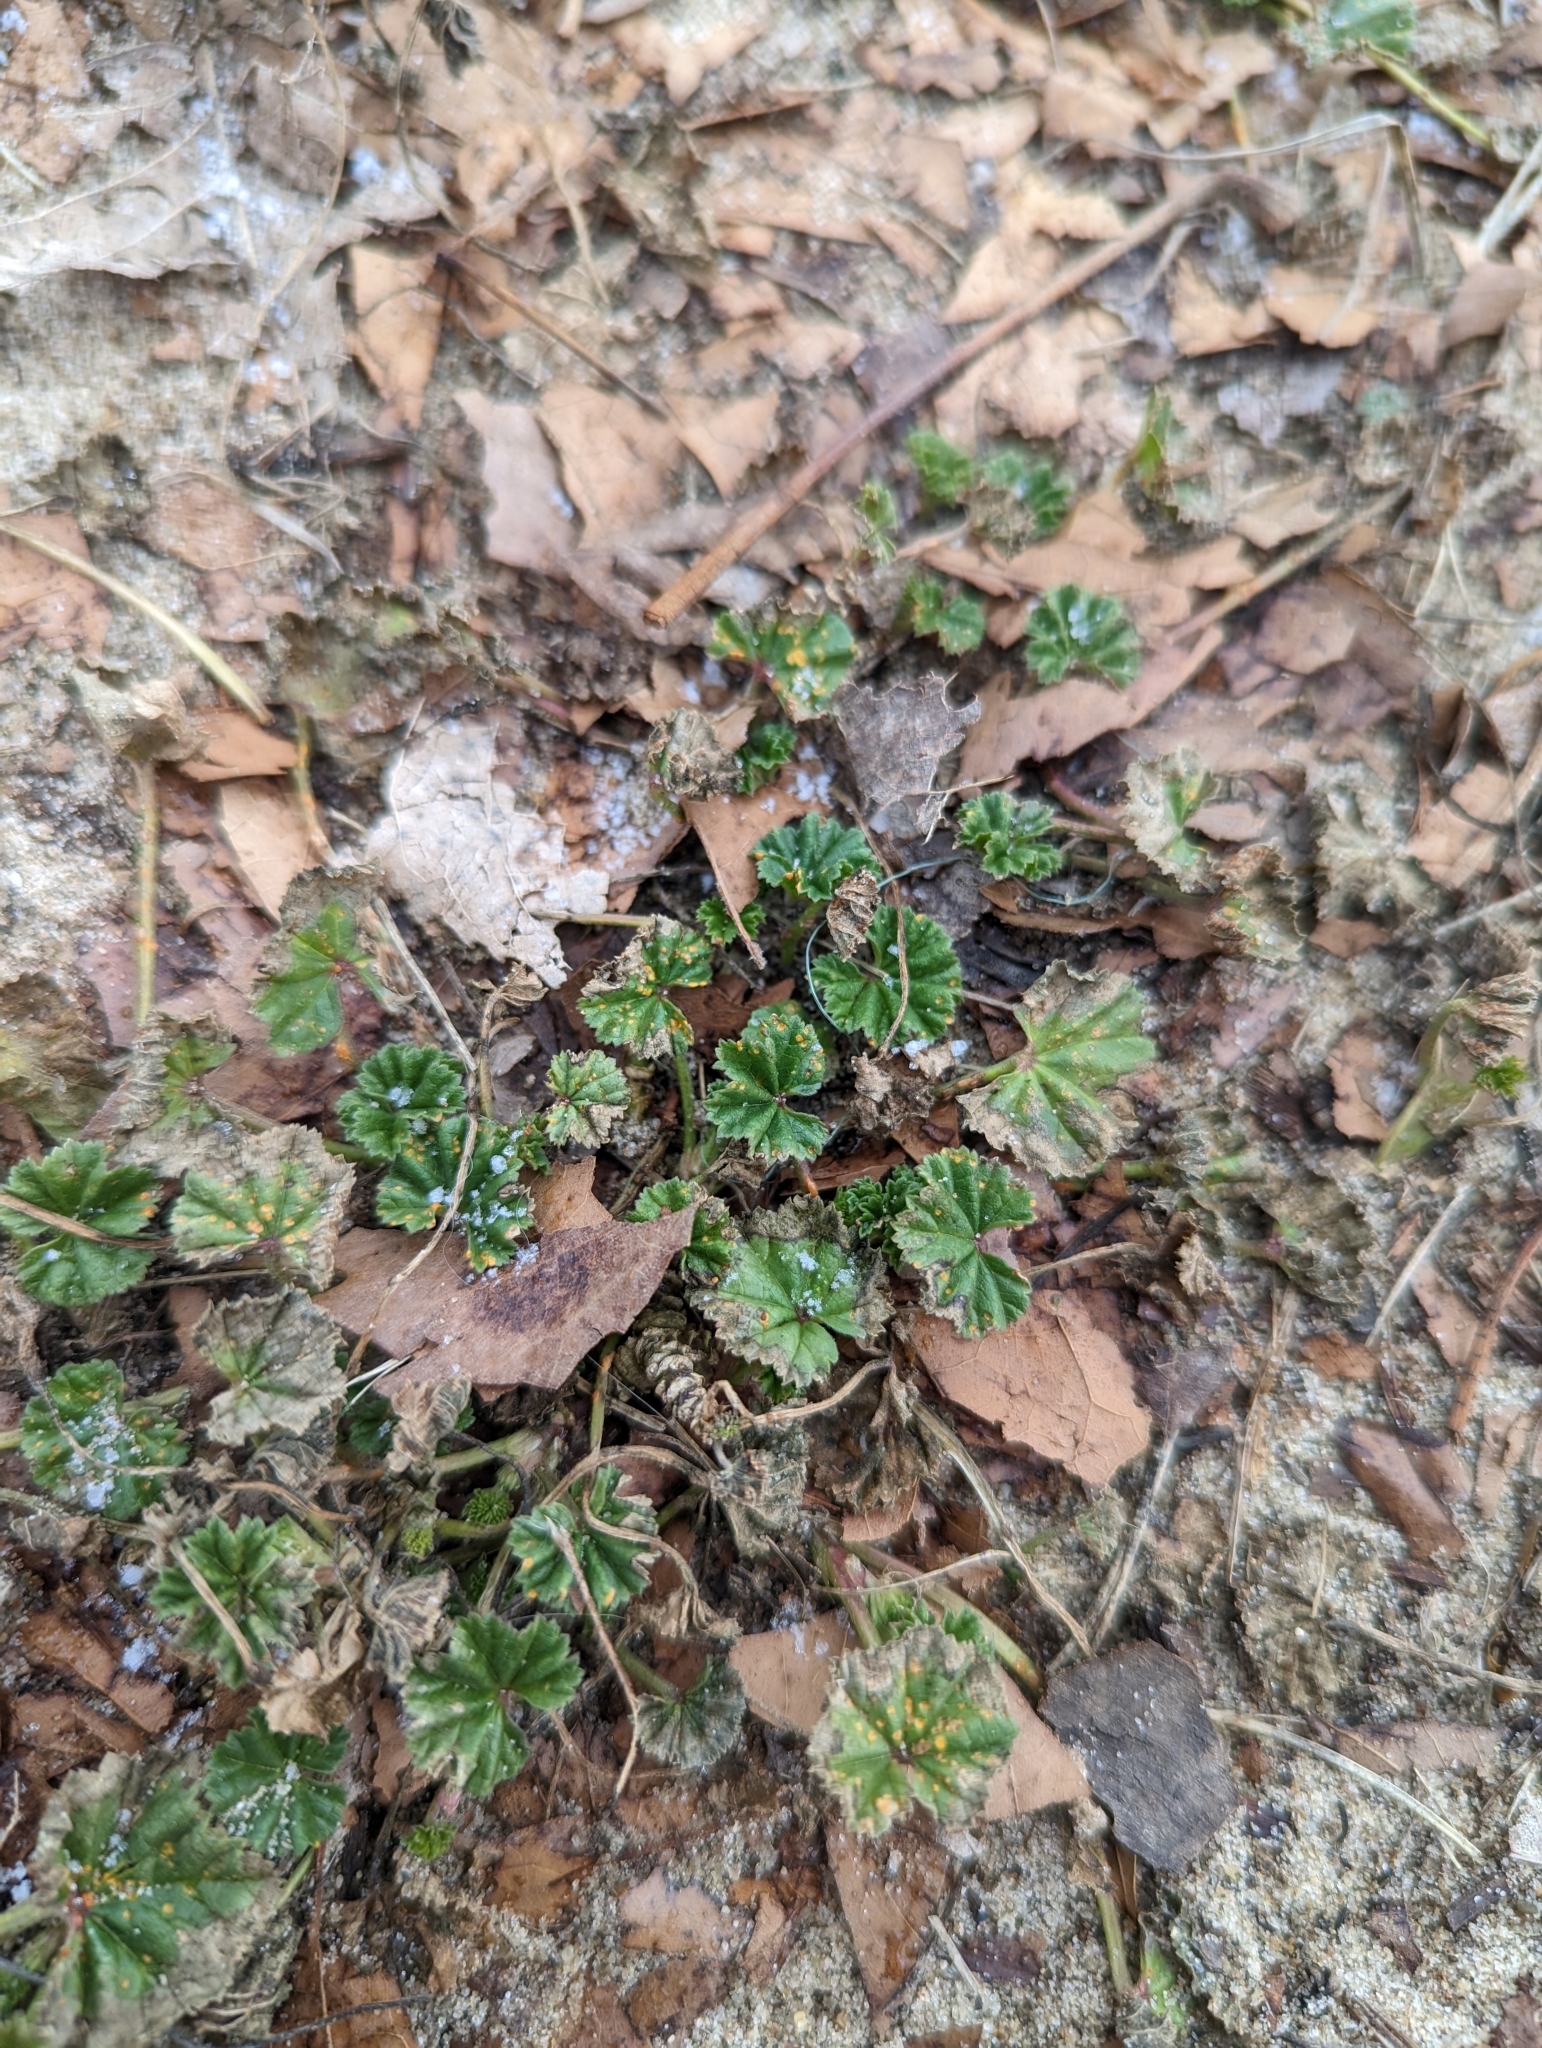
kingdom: Plantae
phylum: Tracheophyta
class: Magnoliopsida
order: Malvales
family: Malvaceae
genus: Malva
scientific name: Malva neglecta
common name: Common mallow
